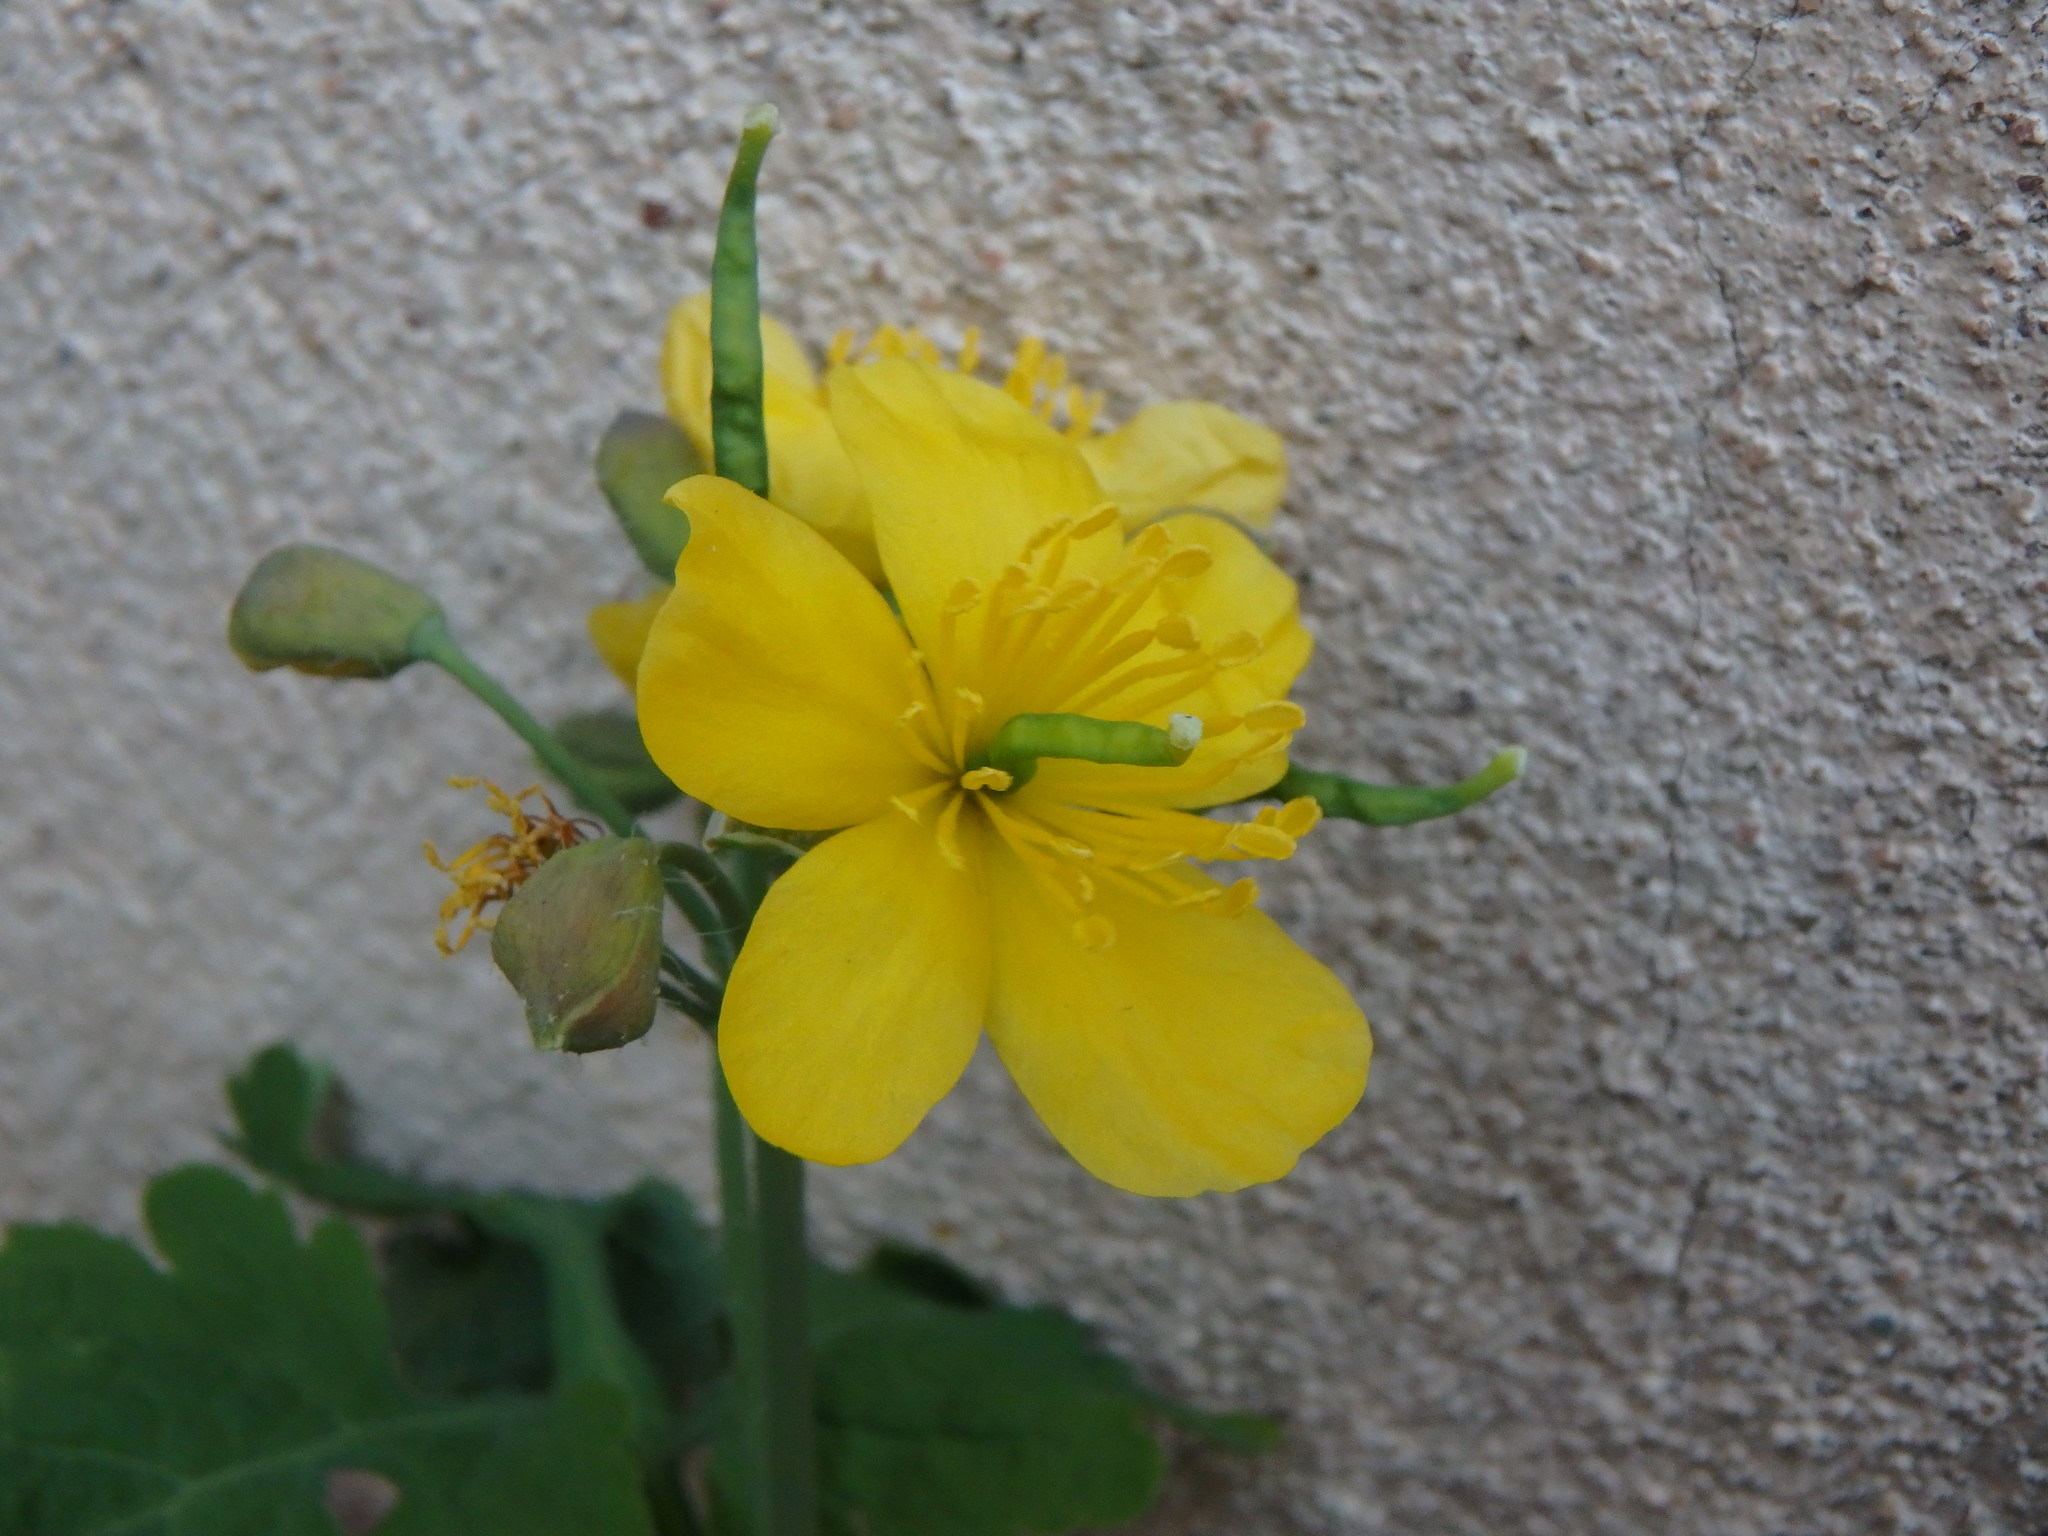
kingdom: Plantae
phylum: Tracheophyta
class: Magnoliopsida
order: Ranunculales
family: Papaveraceae
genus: Chelidonium
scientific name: Chelidonium majus
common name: Greater celandine
